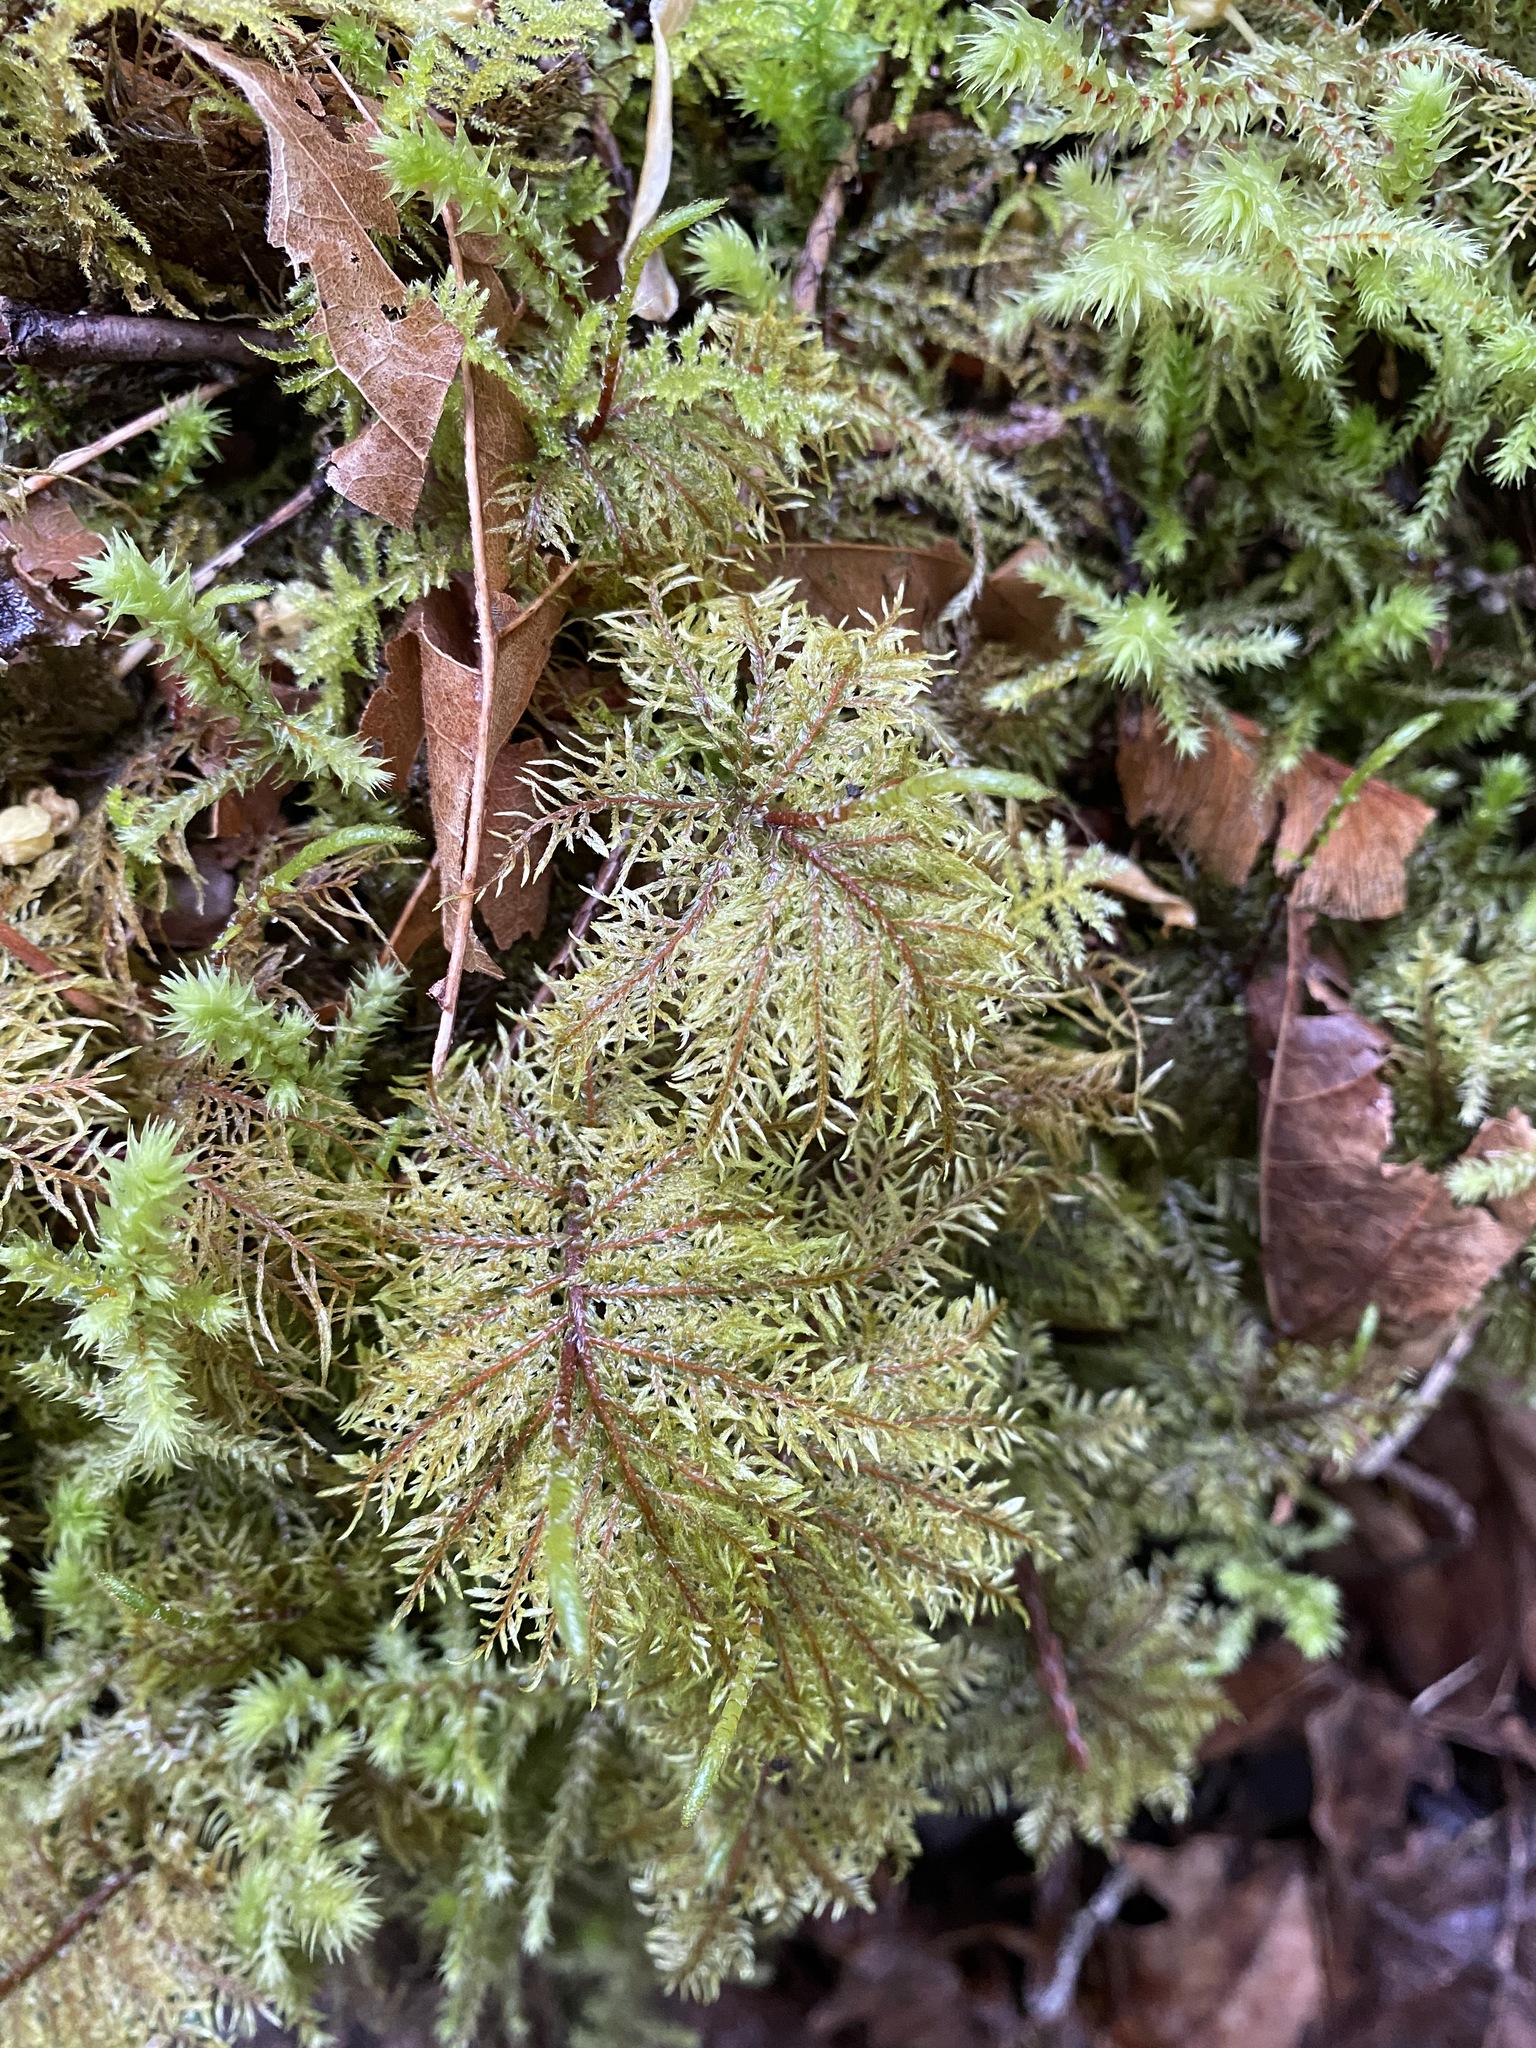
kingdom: Plantae
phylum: Bryophyta
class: Bryopsida
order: Hypnales
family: Hylocomiaceae
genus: Hylocomium
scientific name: Hylocomium splendens
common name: Stairstep moss
